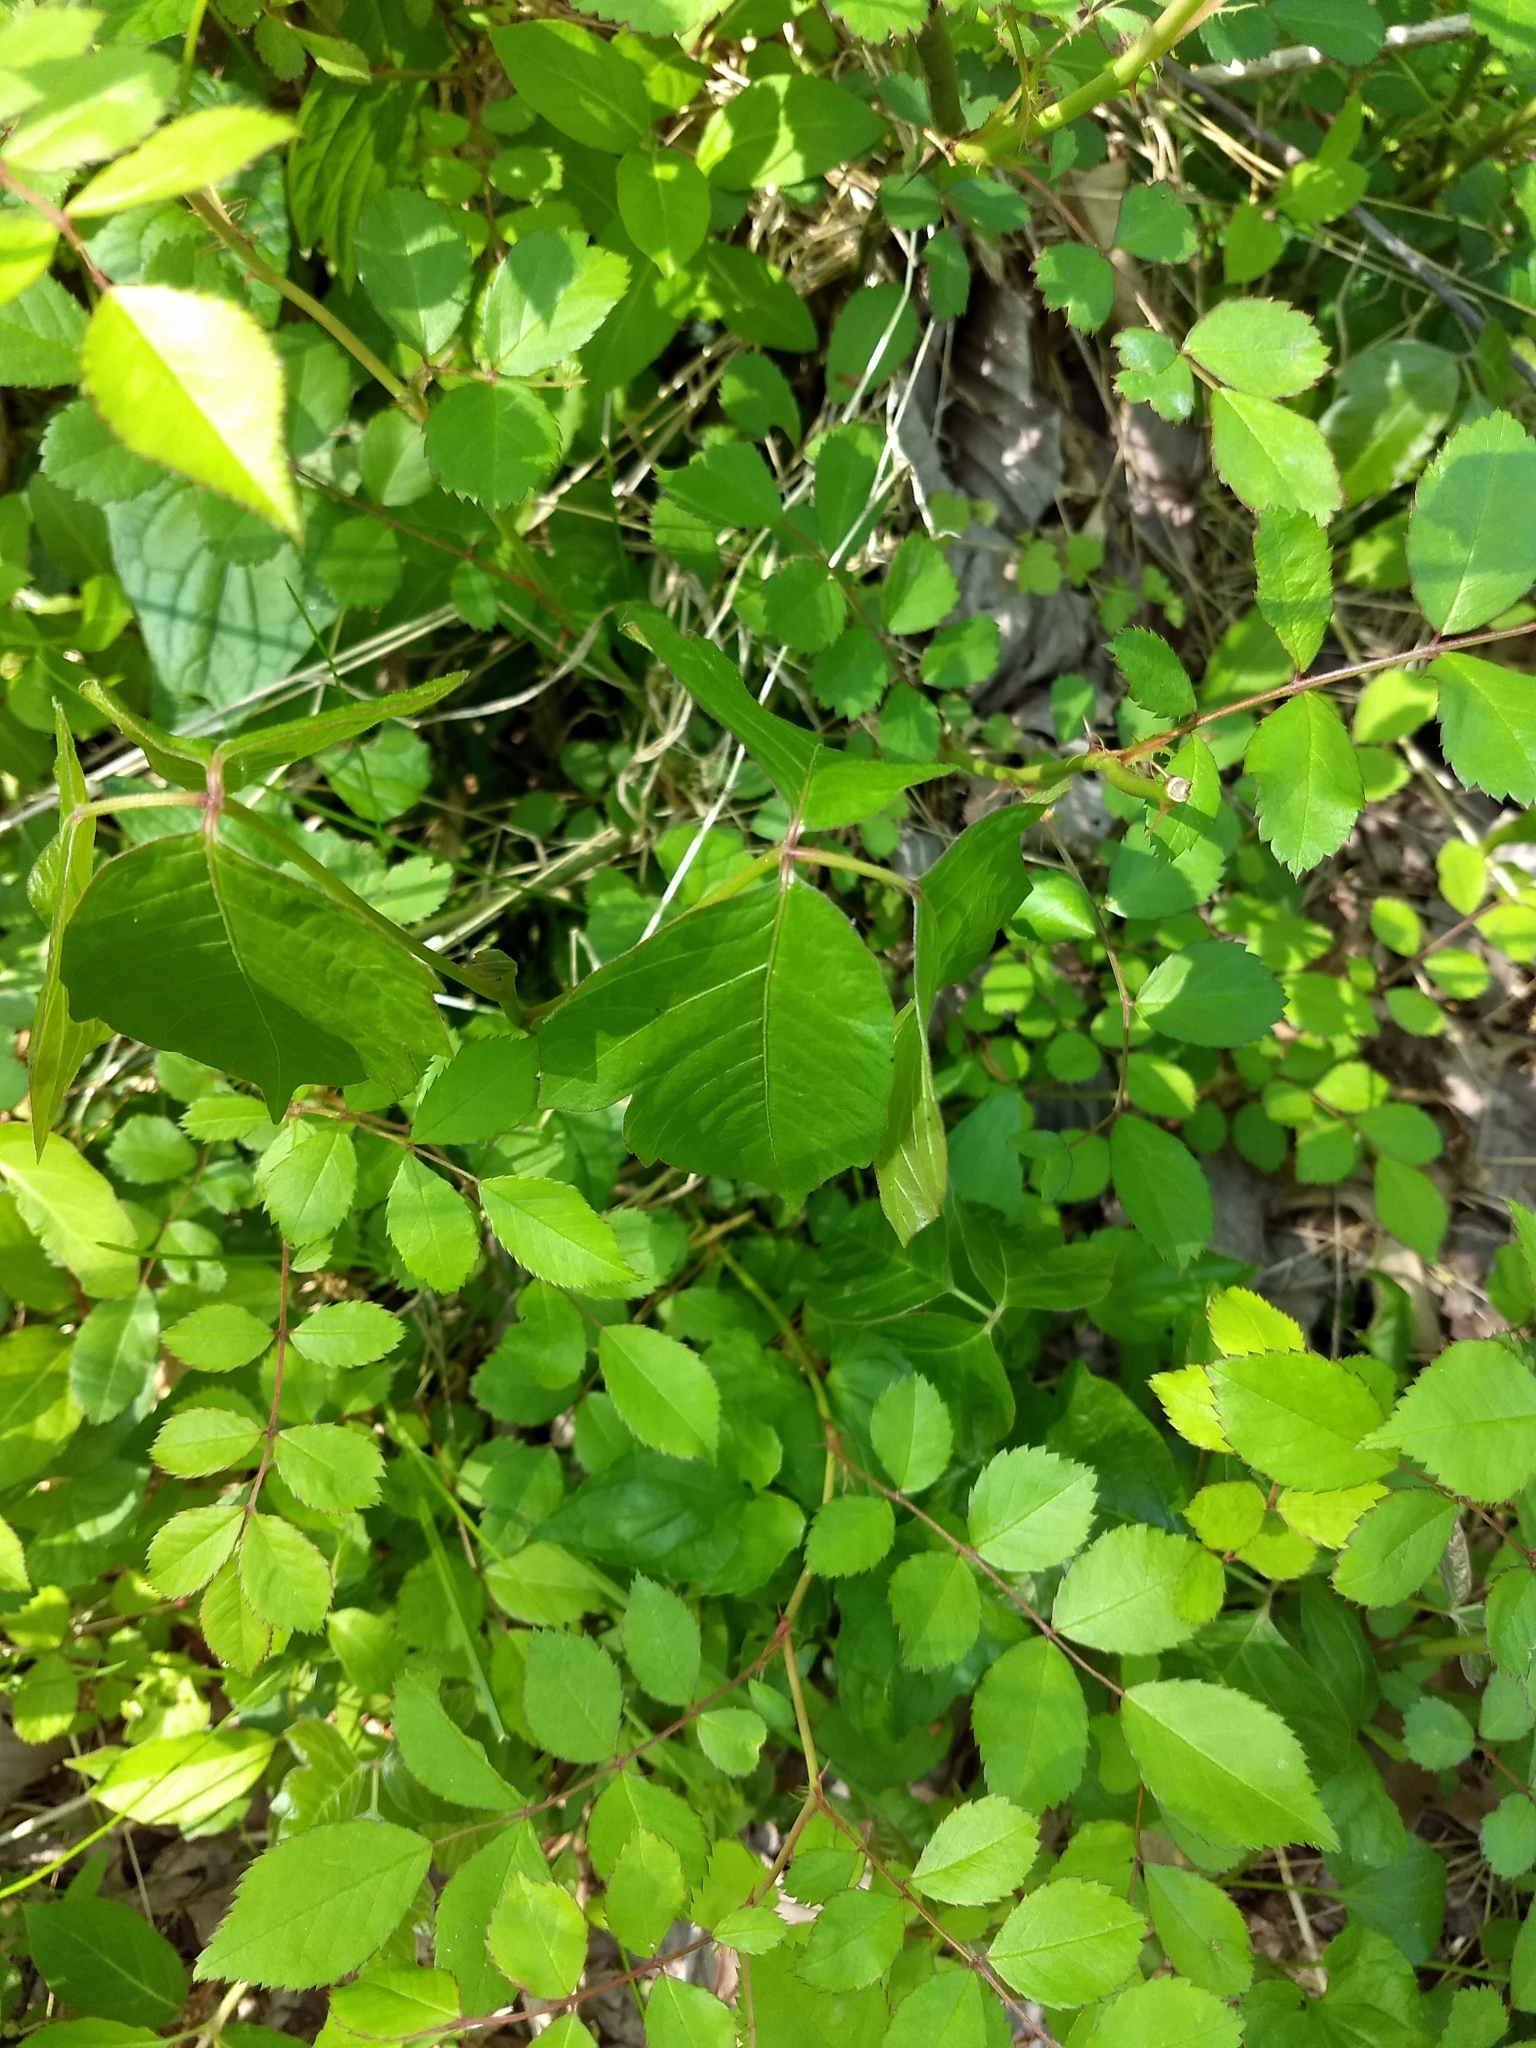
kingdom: Plantae
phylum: Tracheophyta
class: Magnoliopsida
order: Sapindales
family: Anacardiaceae
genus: Toxicodendron
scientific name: Toxicodendron radicans
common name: Poison ivy
